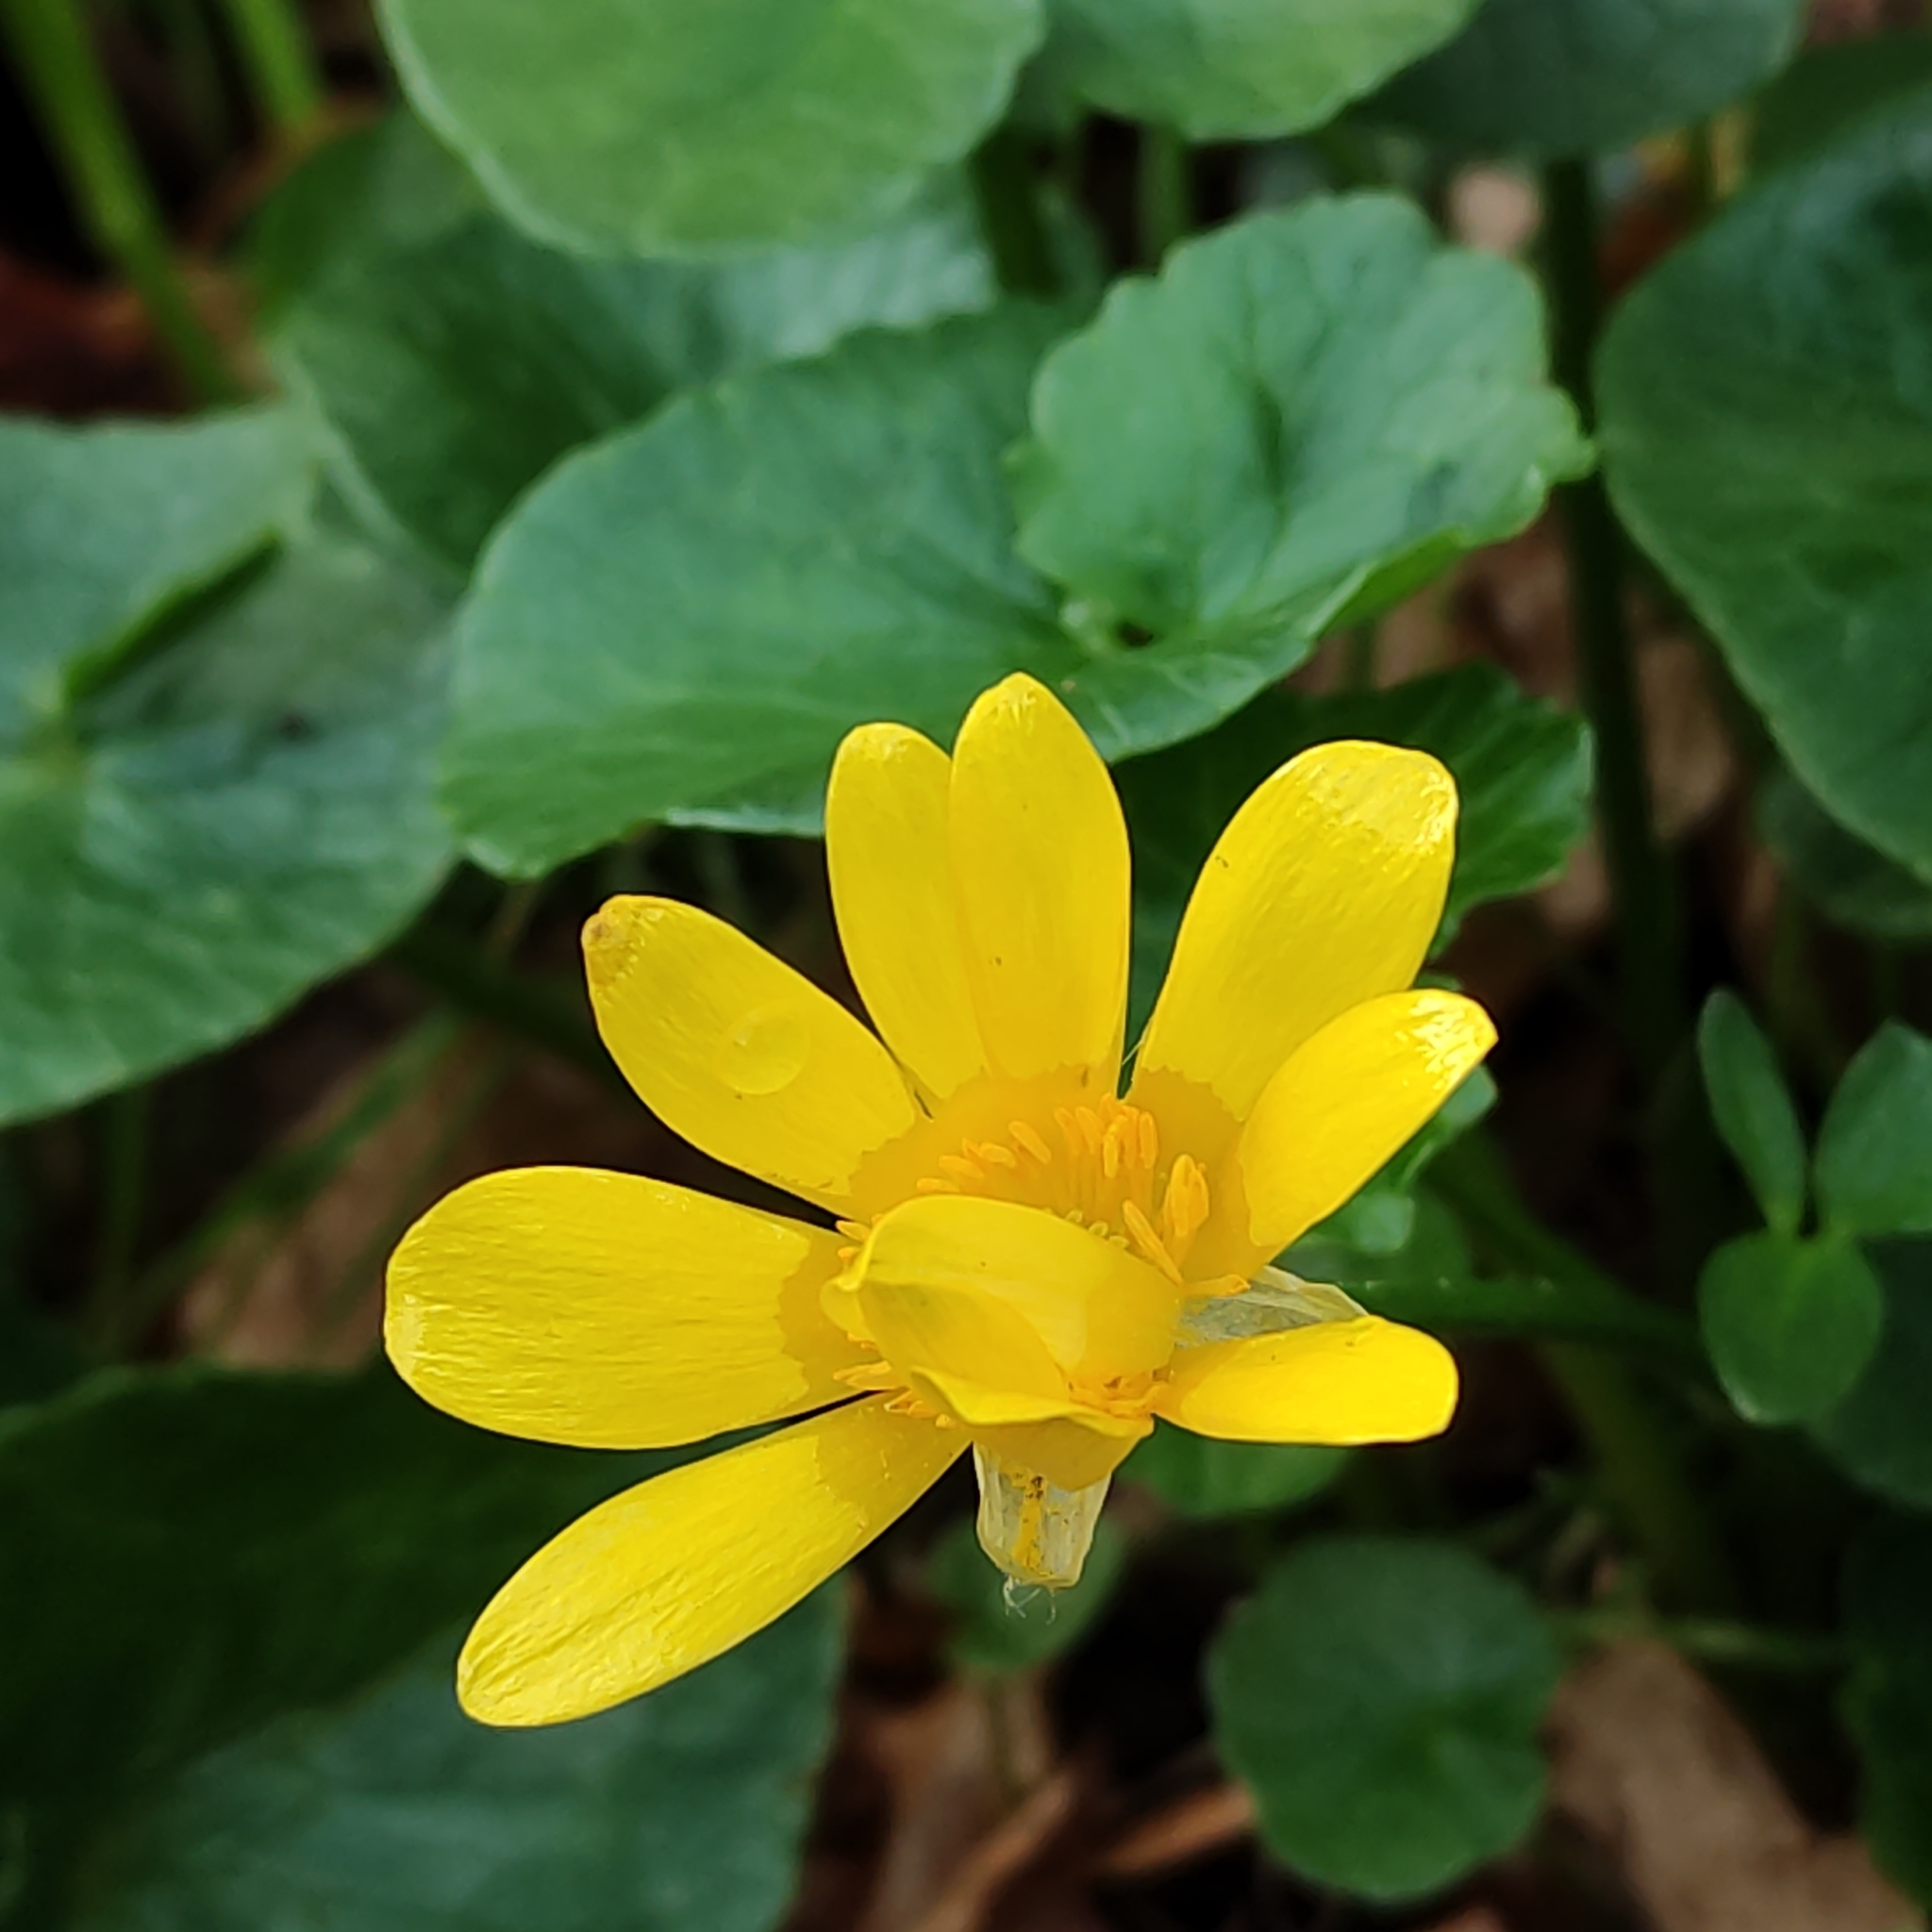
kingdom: Plantae
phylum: Tracheophyta
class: Magnoliopsida
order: Ranunculales
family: Ranunculaceae
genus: Ficaria
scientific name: Ficaria verna
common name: Lesser celandine
